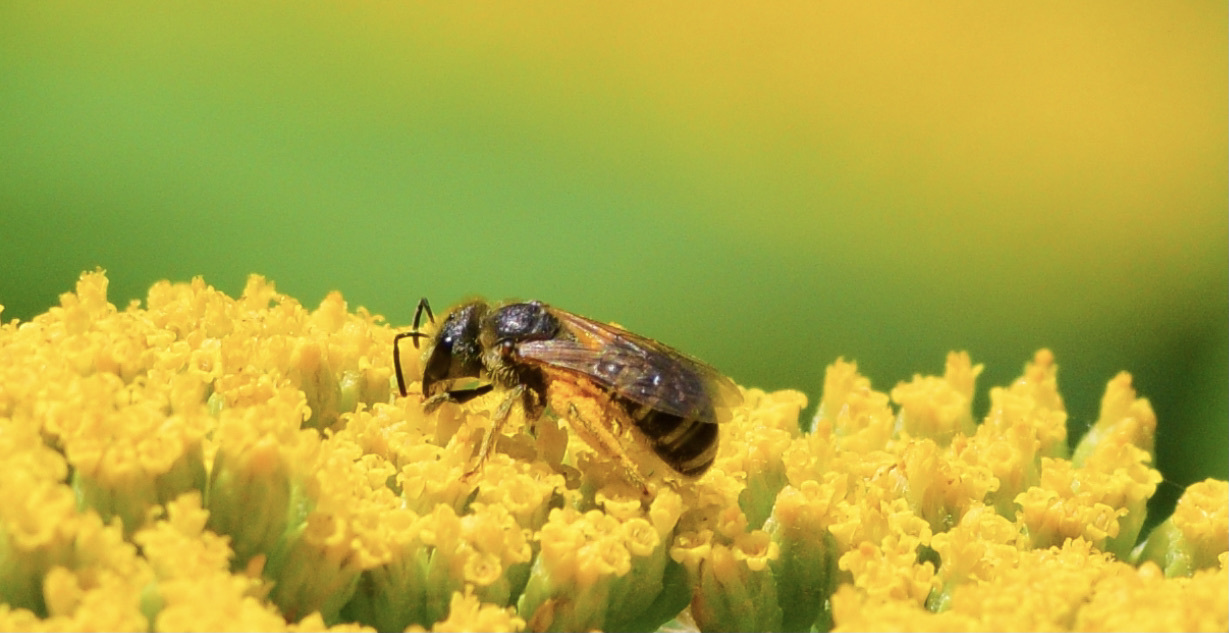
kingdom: Animalia
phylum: Arthropoda
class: Insecta
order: Hymenoptera
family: Halictidae
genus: Halictus
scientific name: Halictus ligatus
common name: Ligated furrow bee
